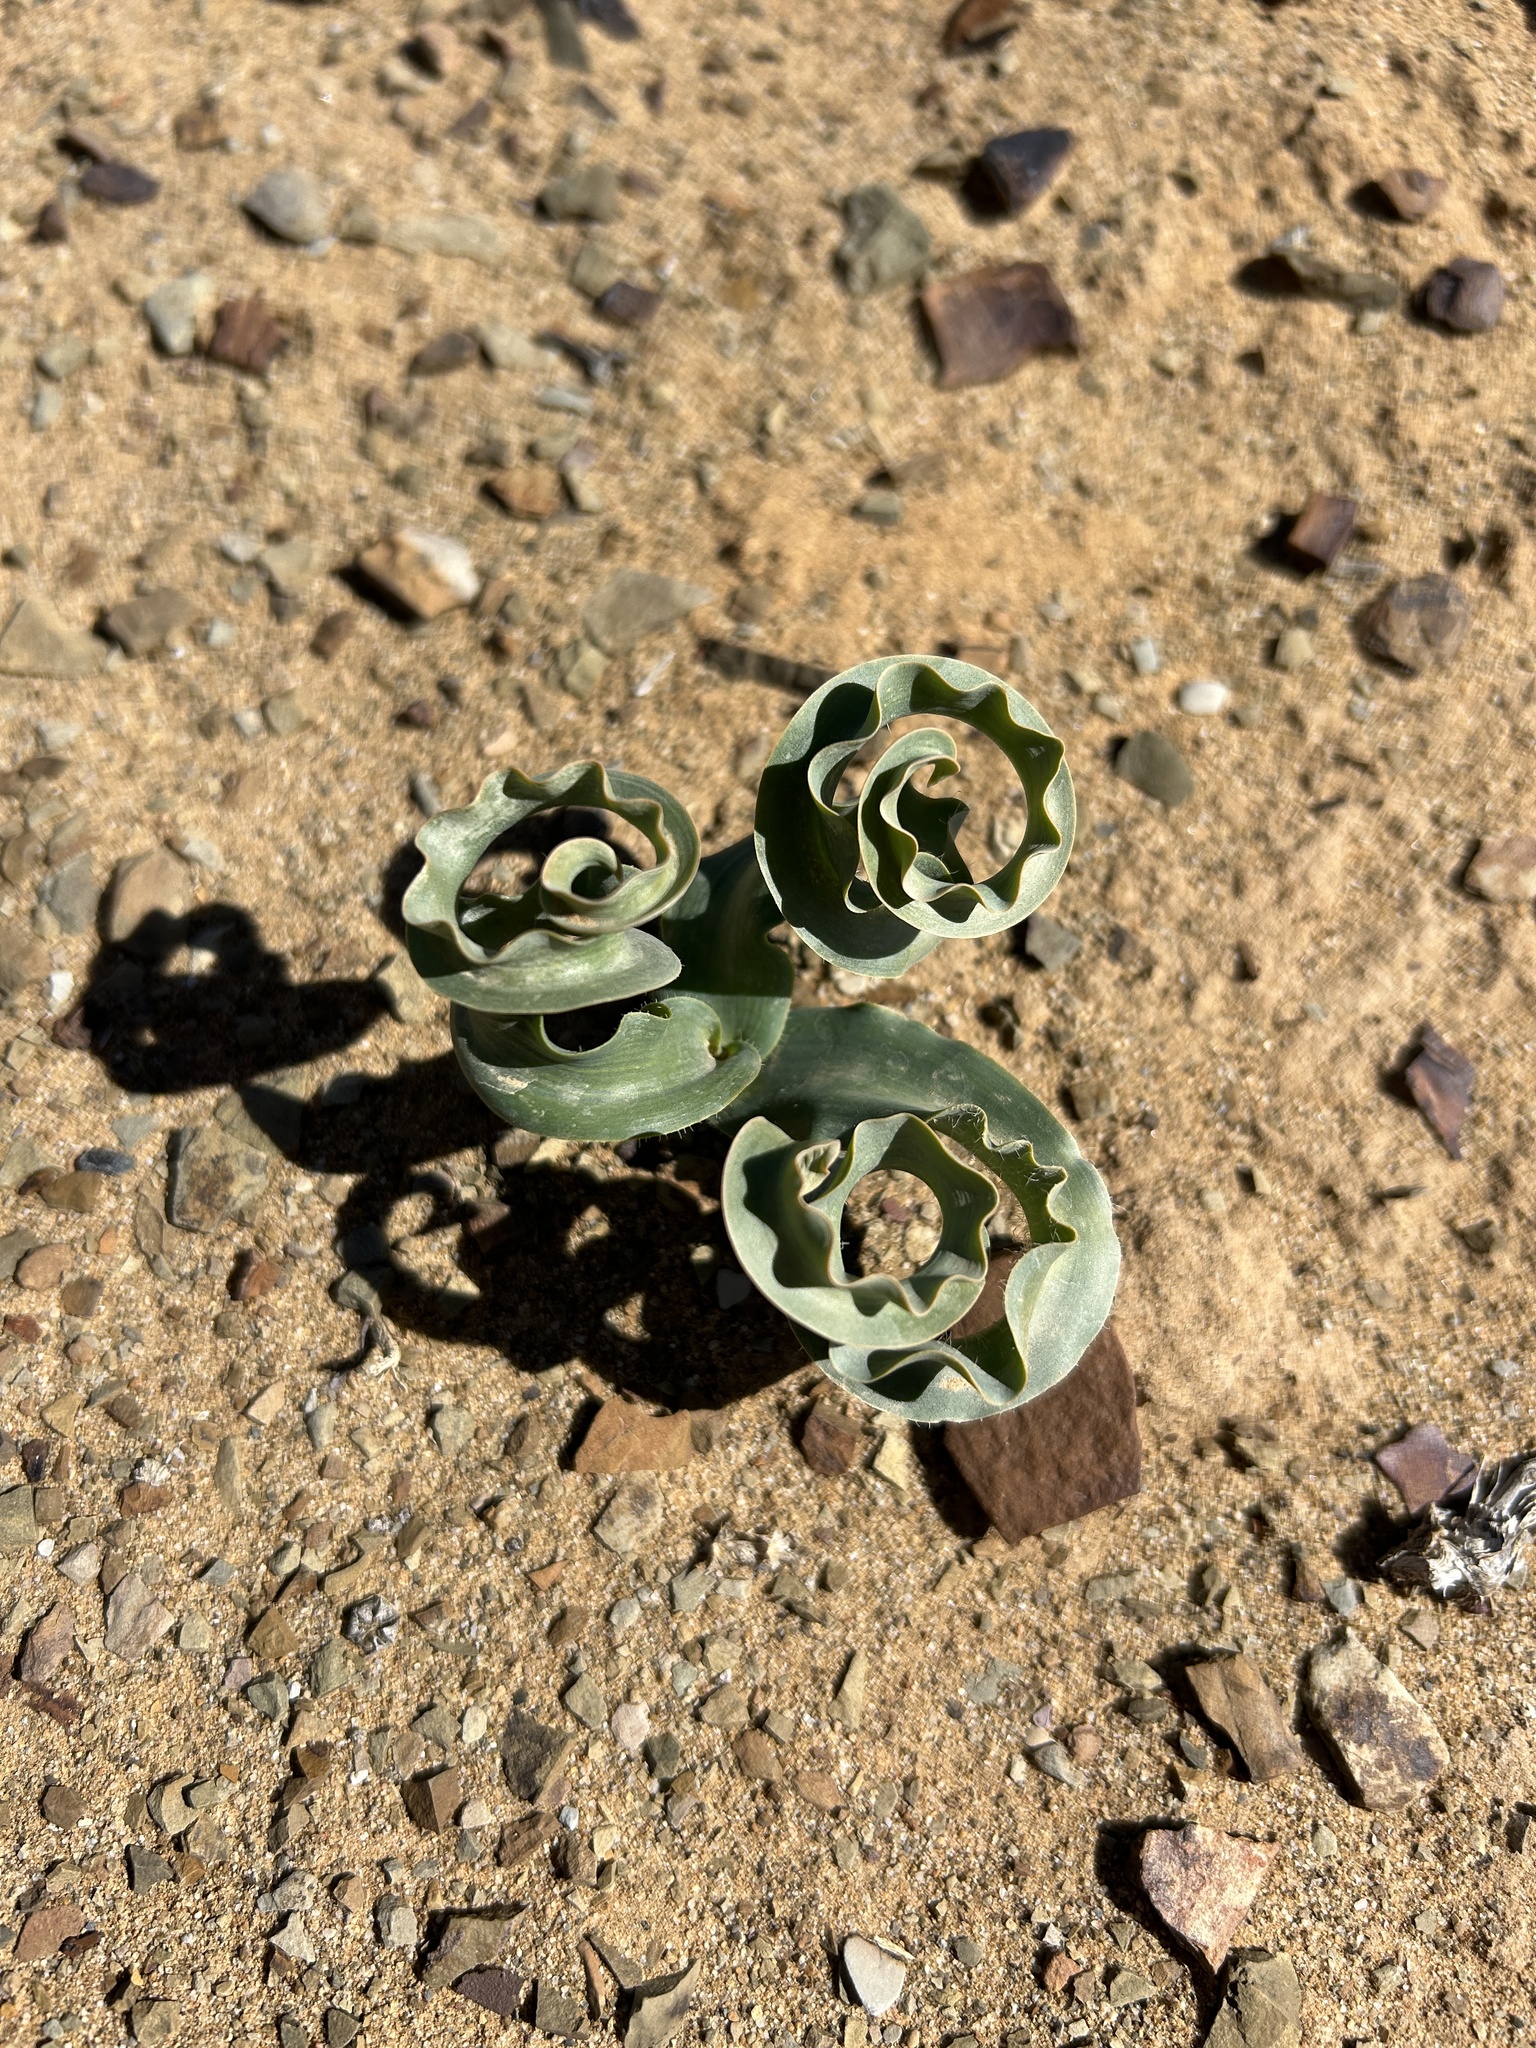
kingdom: Plantae
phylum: Tracheophyta
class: Liliopsida
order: Asparagales
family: Asparagaceae
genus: Albuca
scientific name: Albuca concordiana
